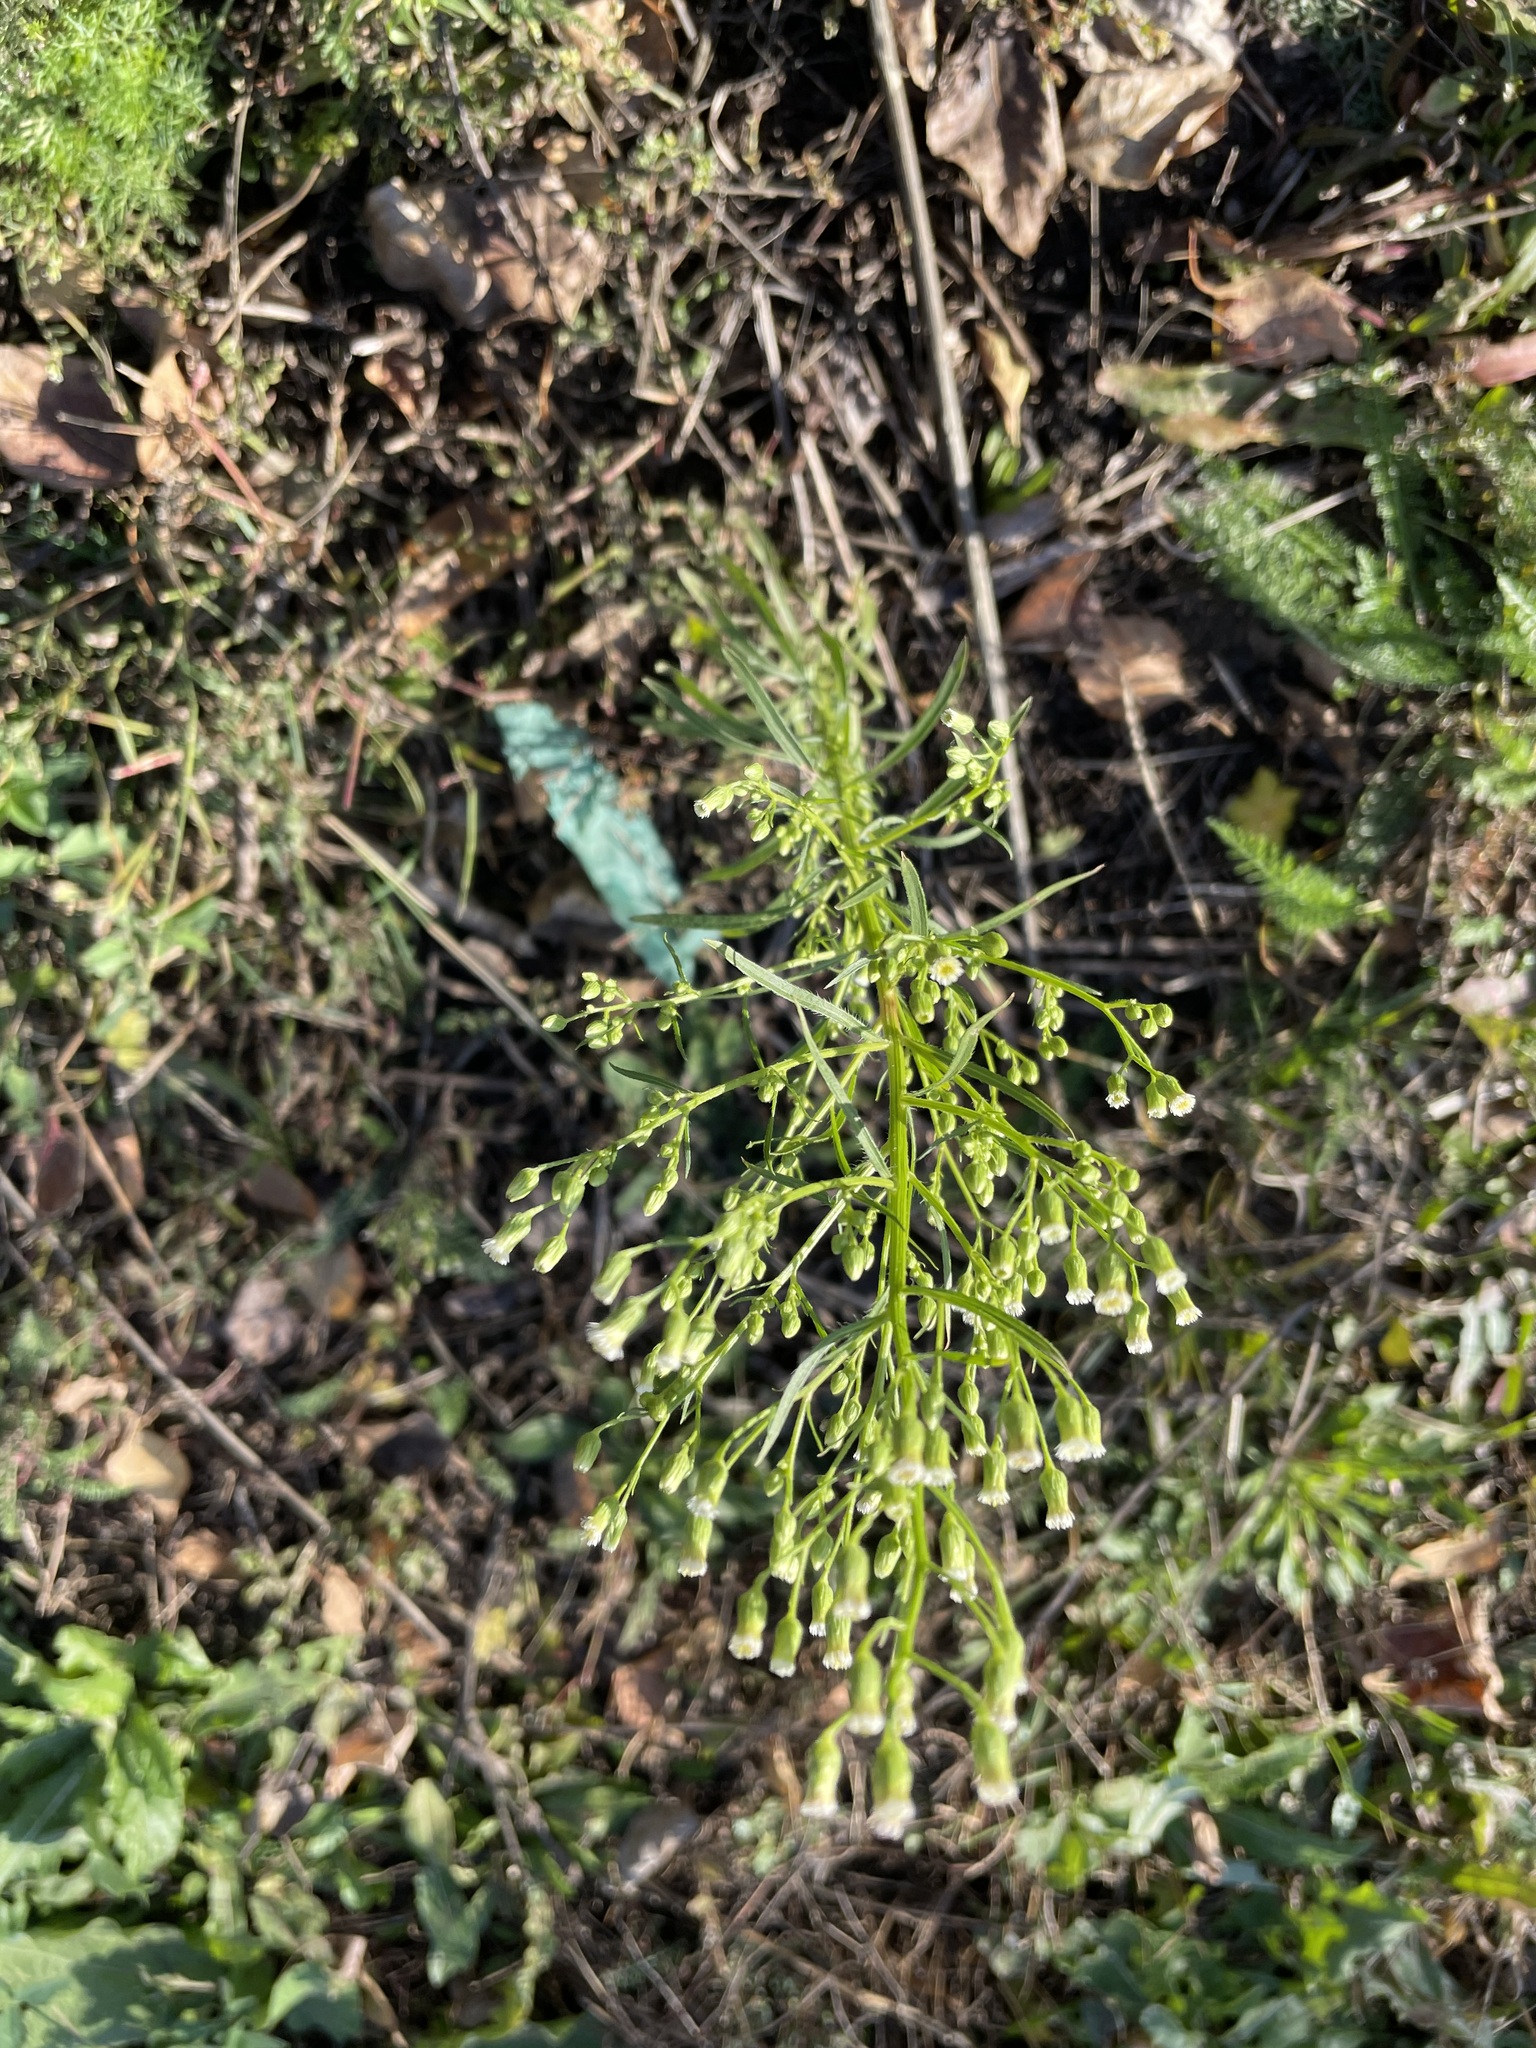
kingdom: Plantae
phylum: Tracheophyta
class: Magnoliopsida
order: Asterales
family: Asteraceae
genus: Erigeron
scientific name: Erigeron canadensis
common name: Canadian fleabane
